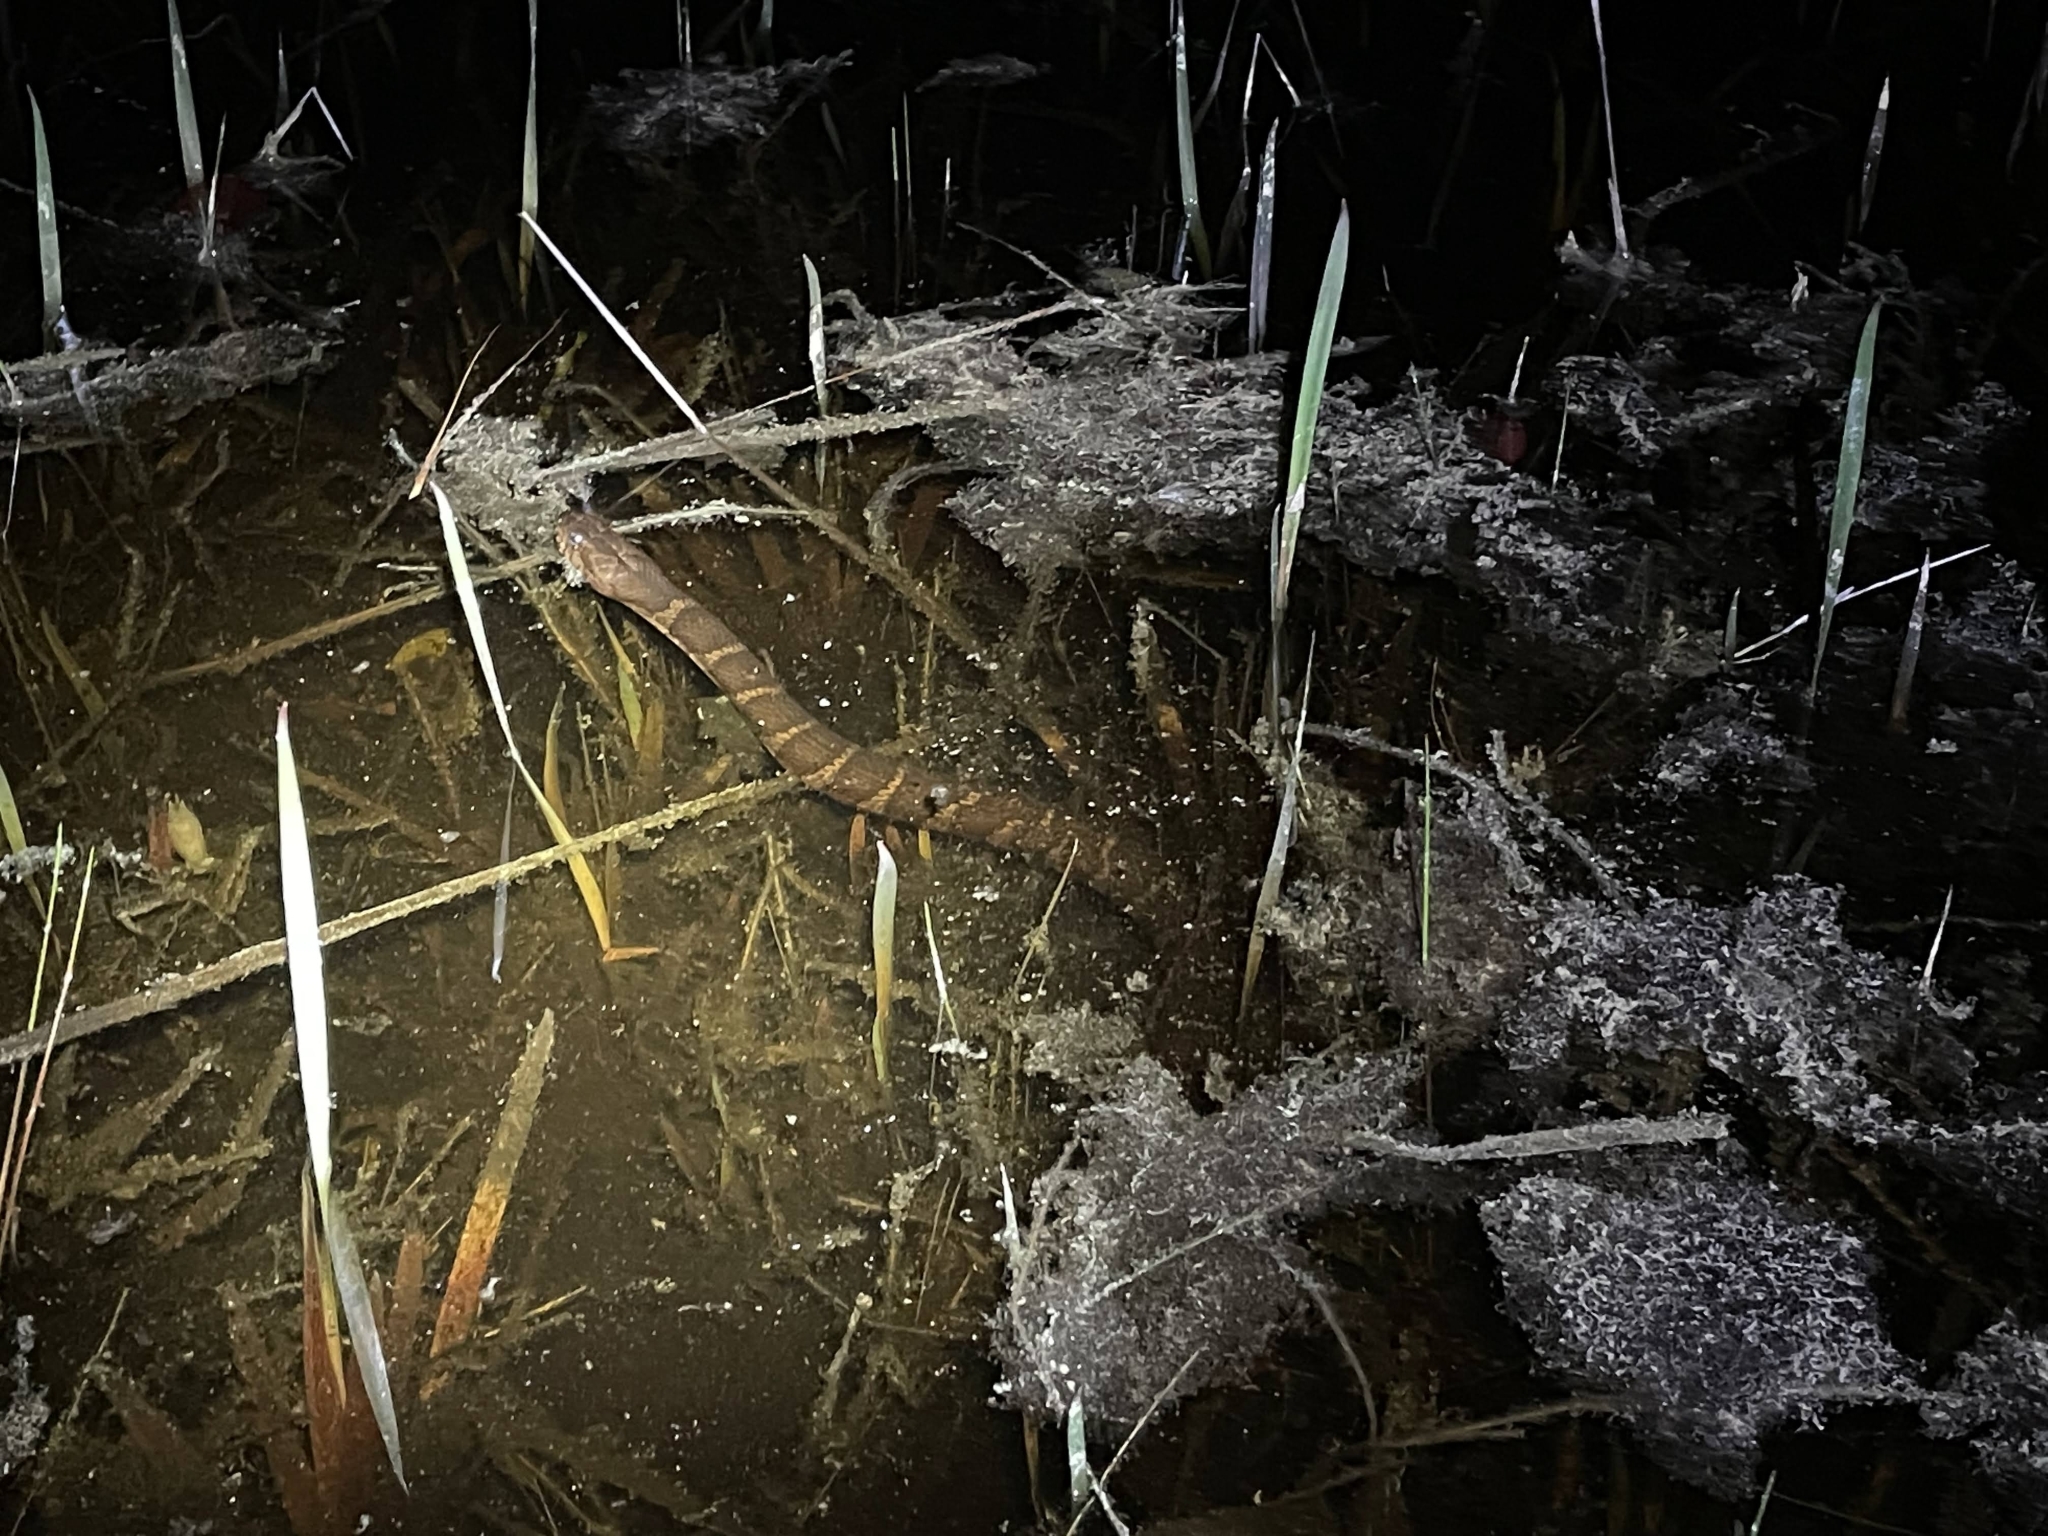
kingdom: Animalia
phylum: Chordata
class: Squamata
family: Colubridae
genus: Nerodia
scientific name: Nerodia sipedon
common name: Northern water snake
